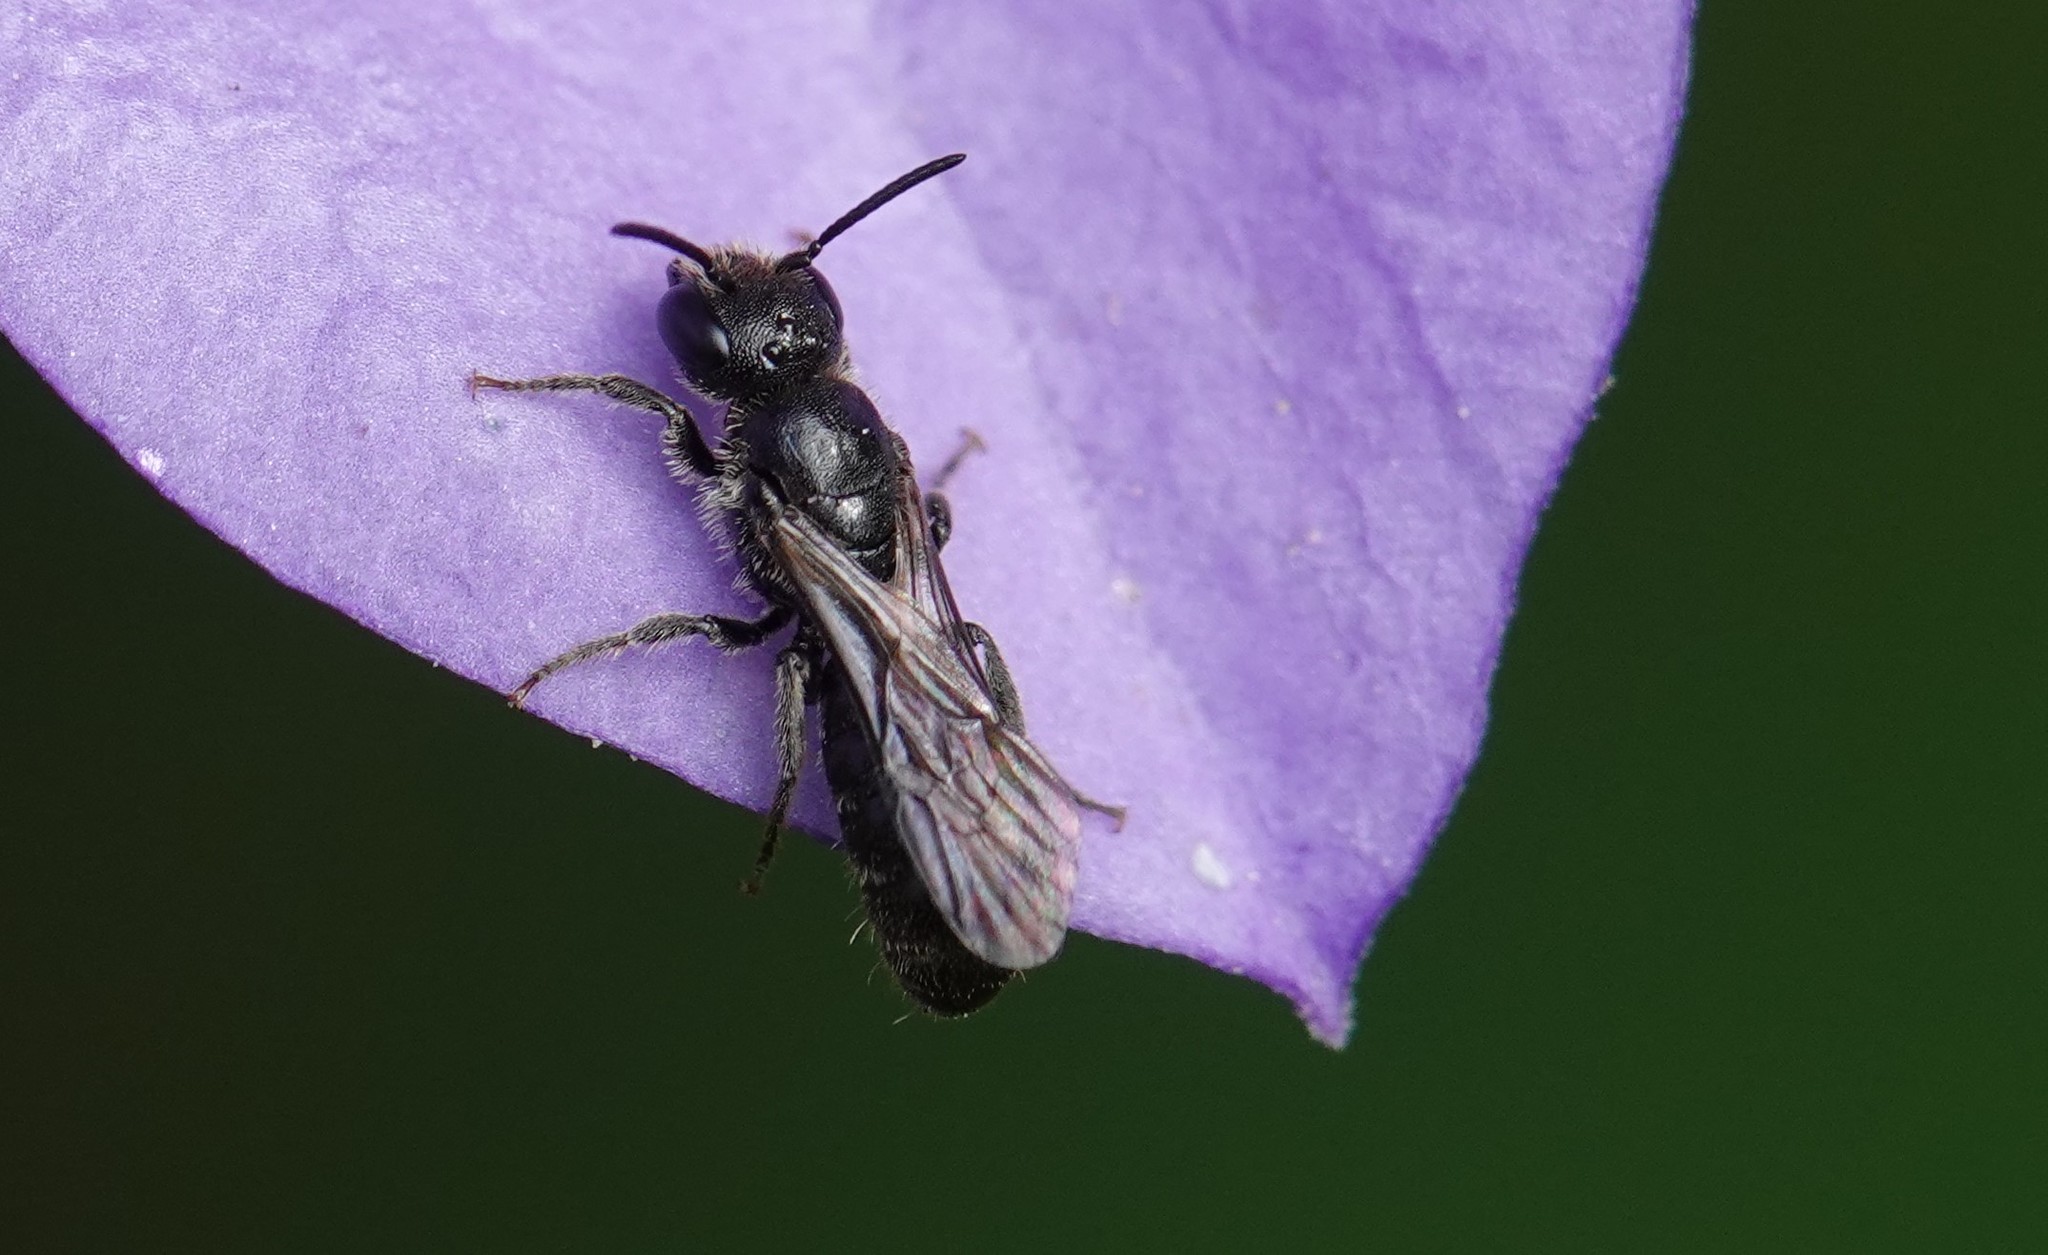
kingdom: Animalia
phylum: Arthropoda
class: Insecta
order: Hymenoptera
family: Megachilidae
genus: Chelostoma
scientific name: Chelostoma campanularum
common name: Small scissor bee
